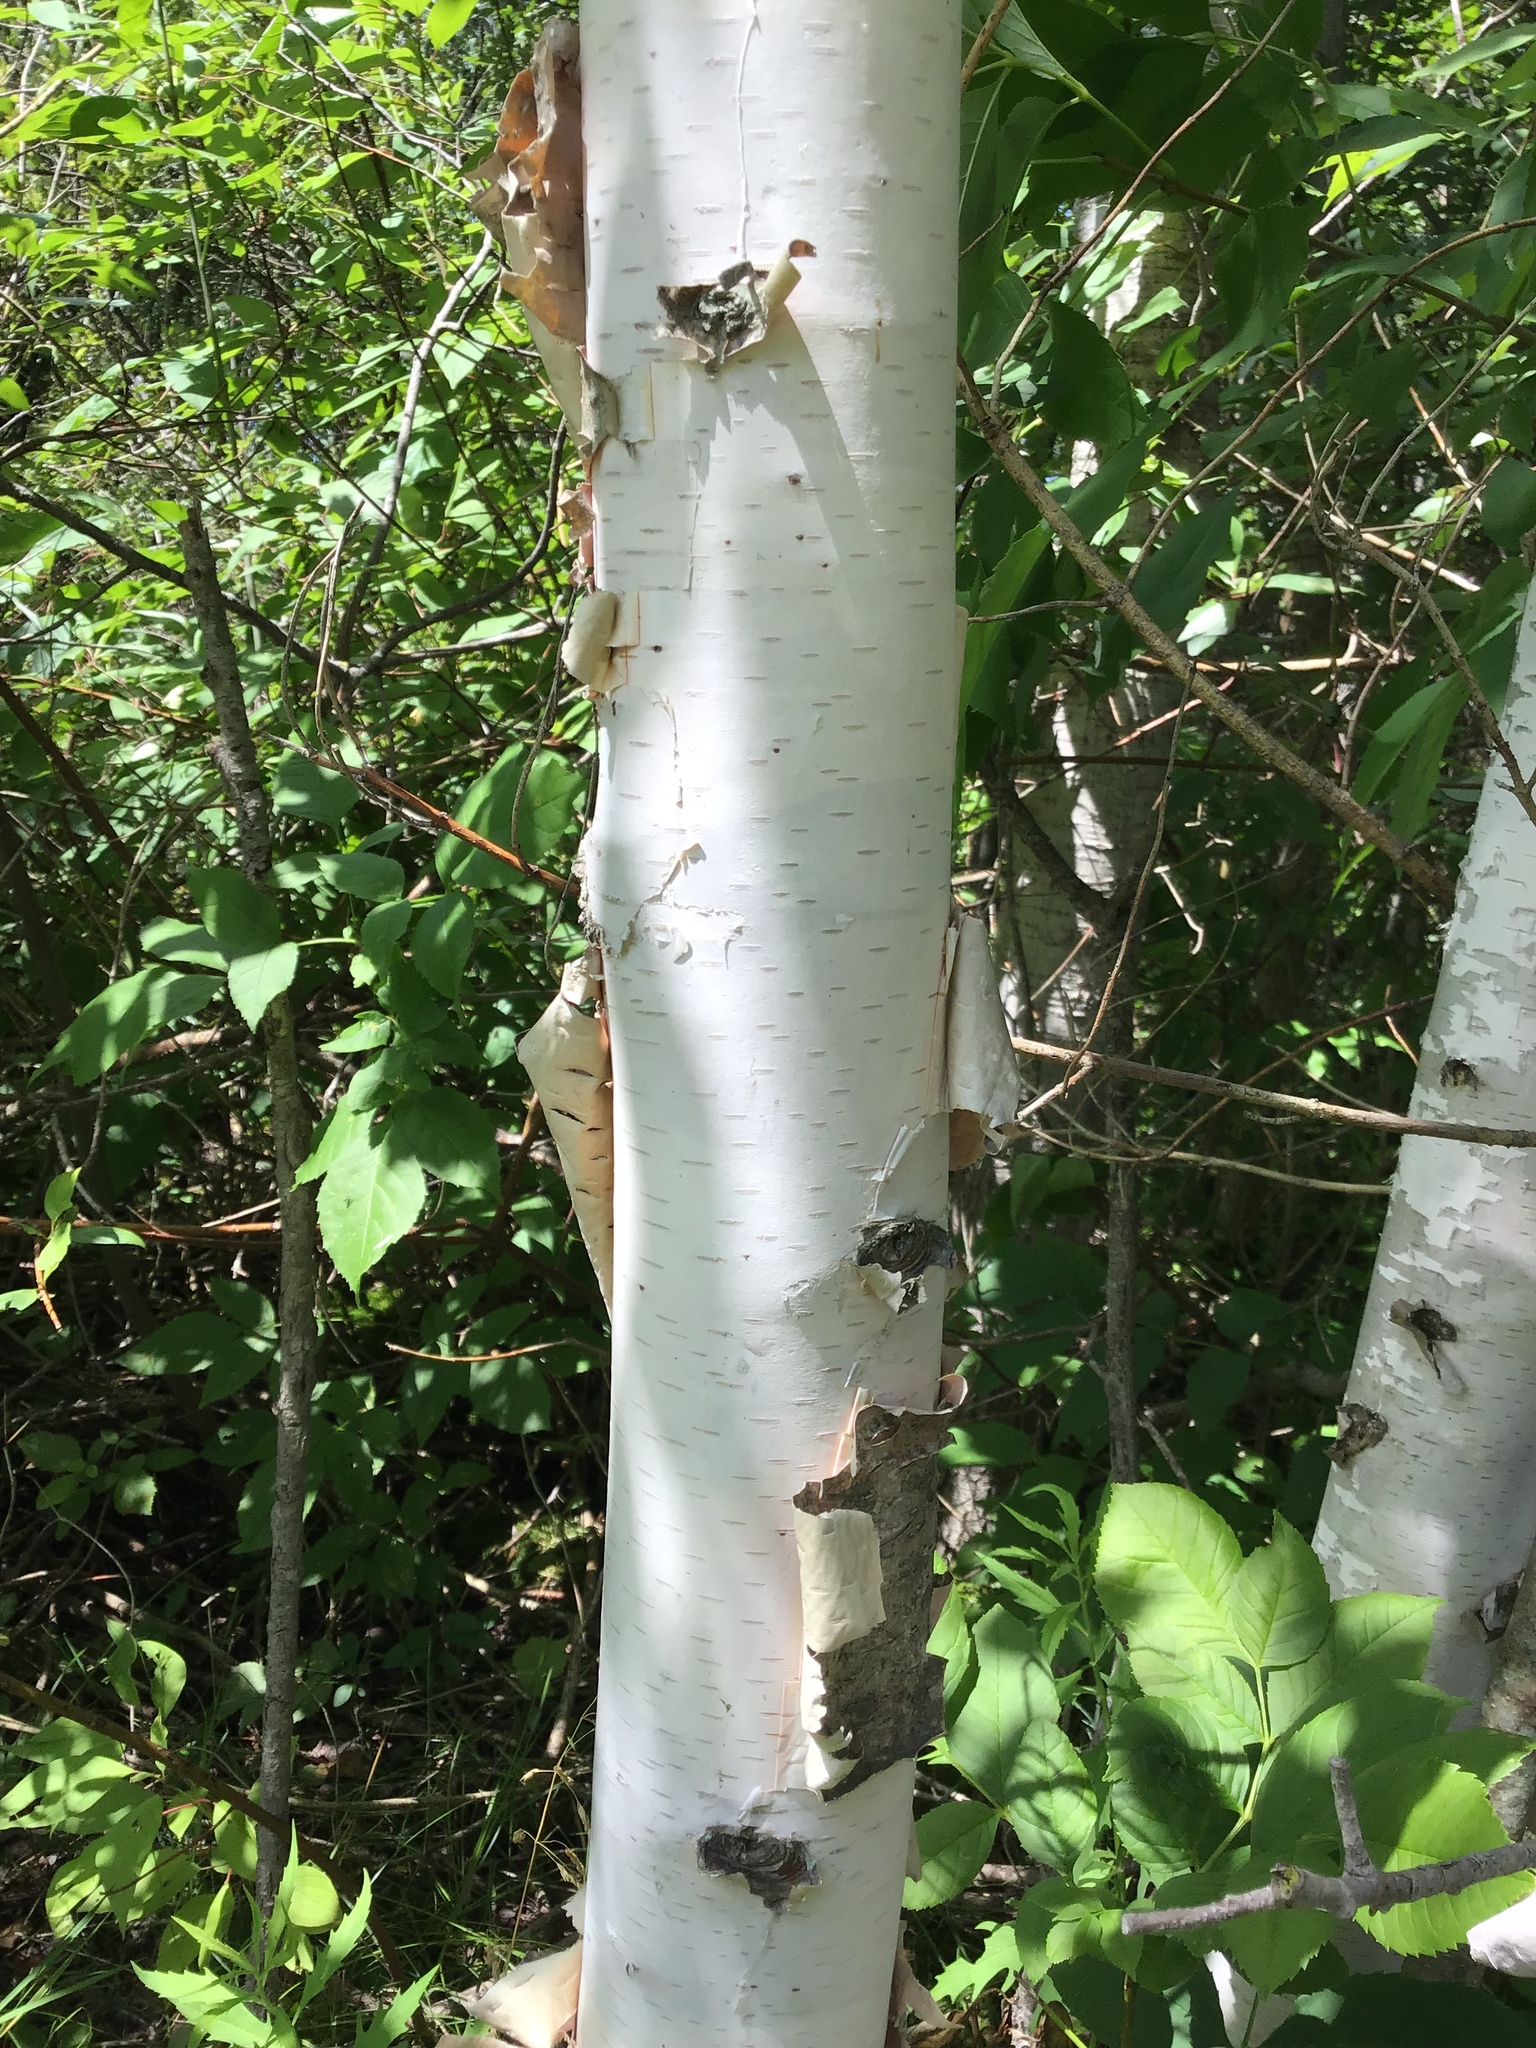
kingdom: Plantae
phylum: Tracheophyta
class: Magnoliopsida
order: Fagales
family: Betulaceae
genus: Betula
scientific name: Betula papyrifera
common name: Paper birch
